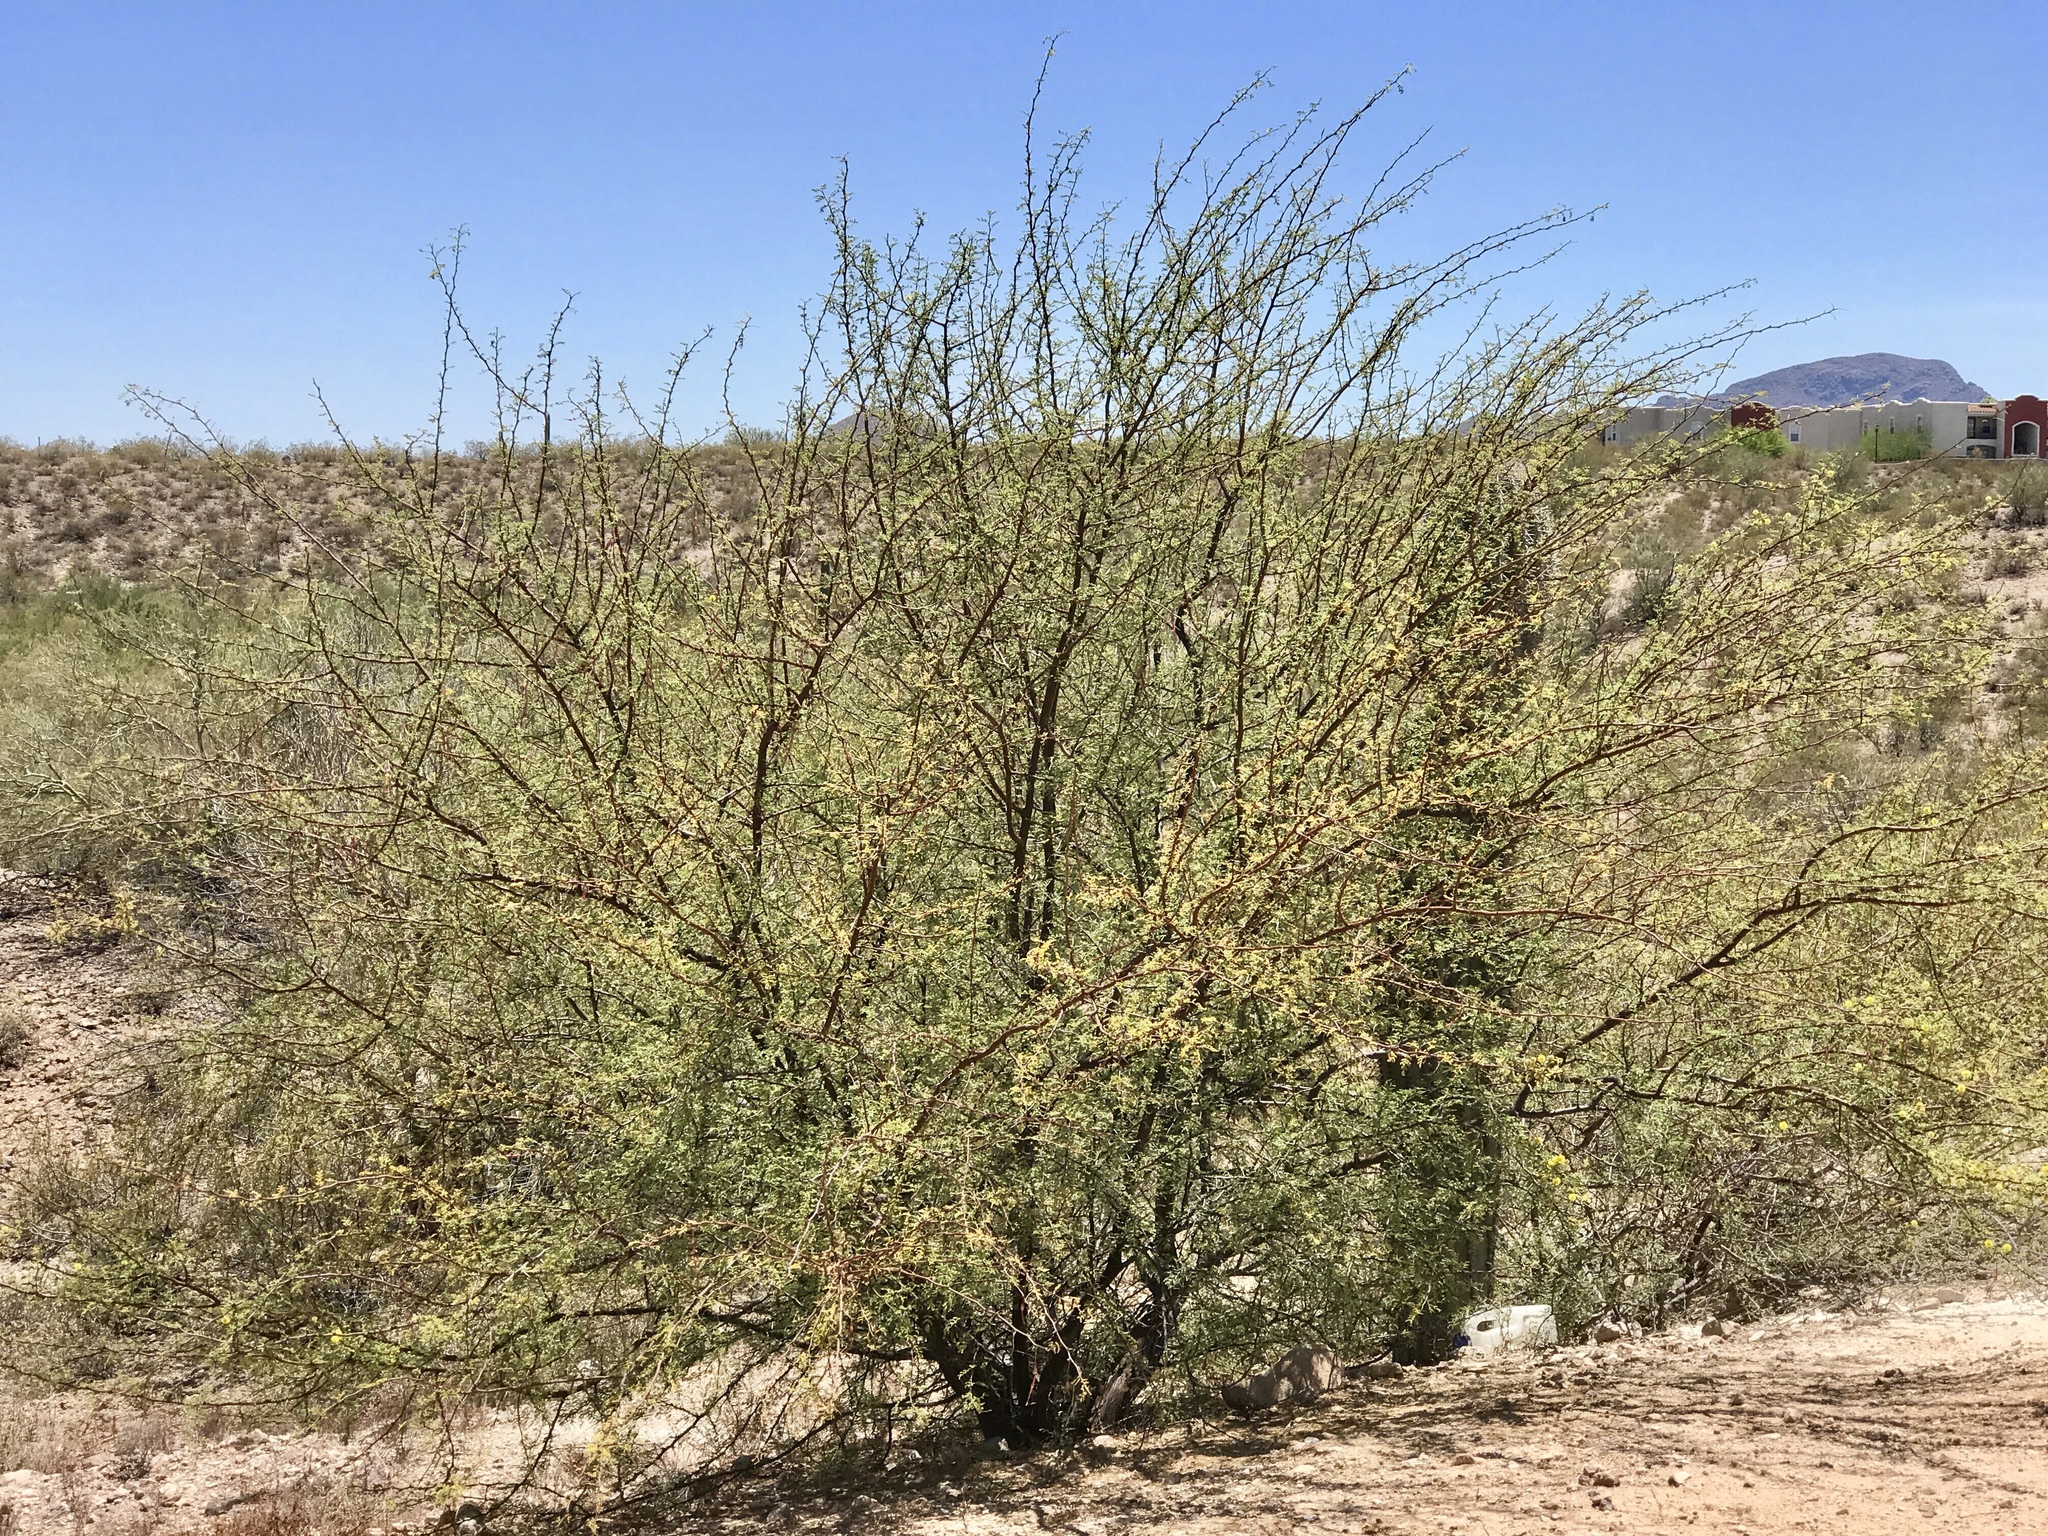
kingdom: Plantae
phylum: Tracheophyta
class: Magnoliopsida
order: Fabales
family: Fabaceae
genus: Vachellia
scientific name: Vachellia constricta
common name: Mescat acacia
